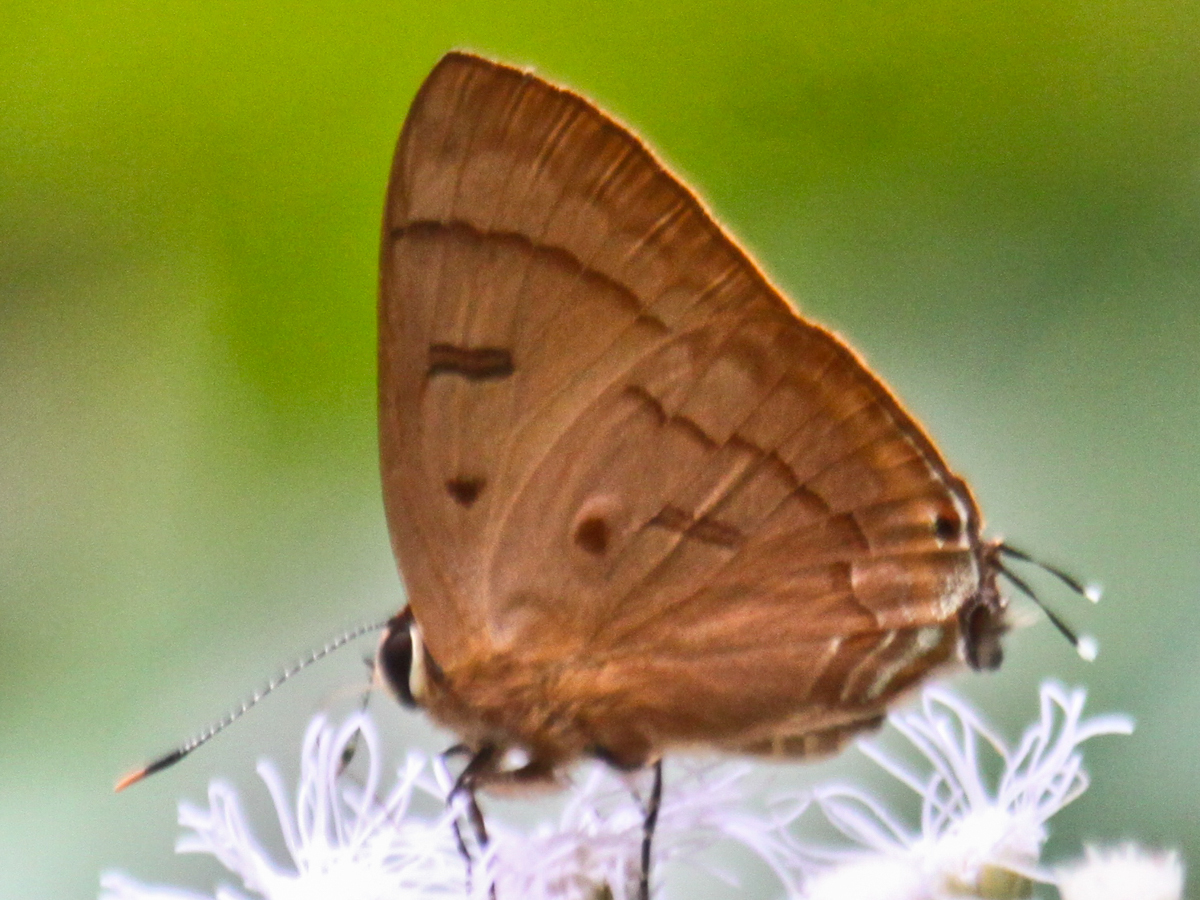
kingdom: Animalia
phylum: Arthropoda
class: Insecta
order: Lepidoptera
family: Lycaenidae
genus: Rapala
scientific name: Rapala pheretima
